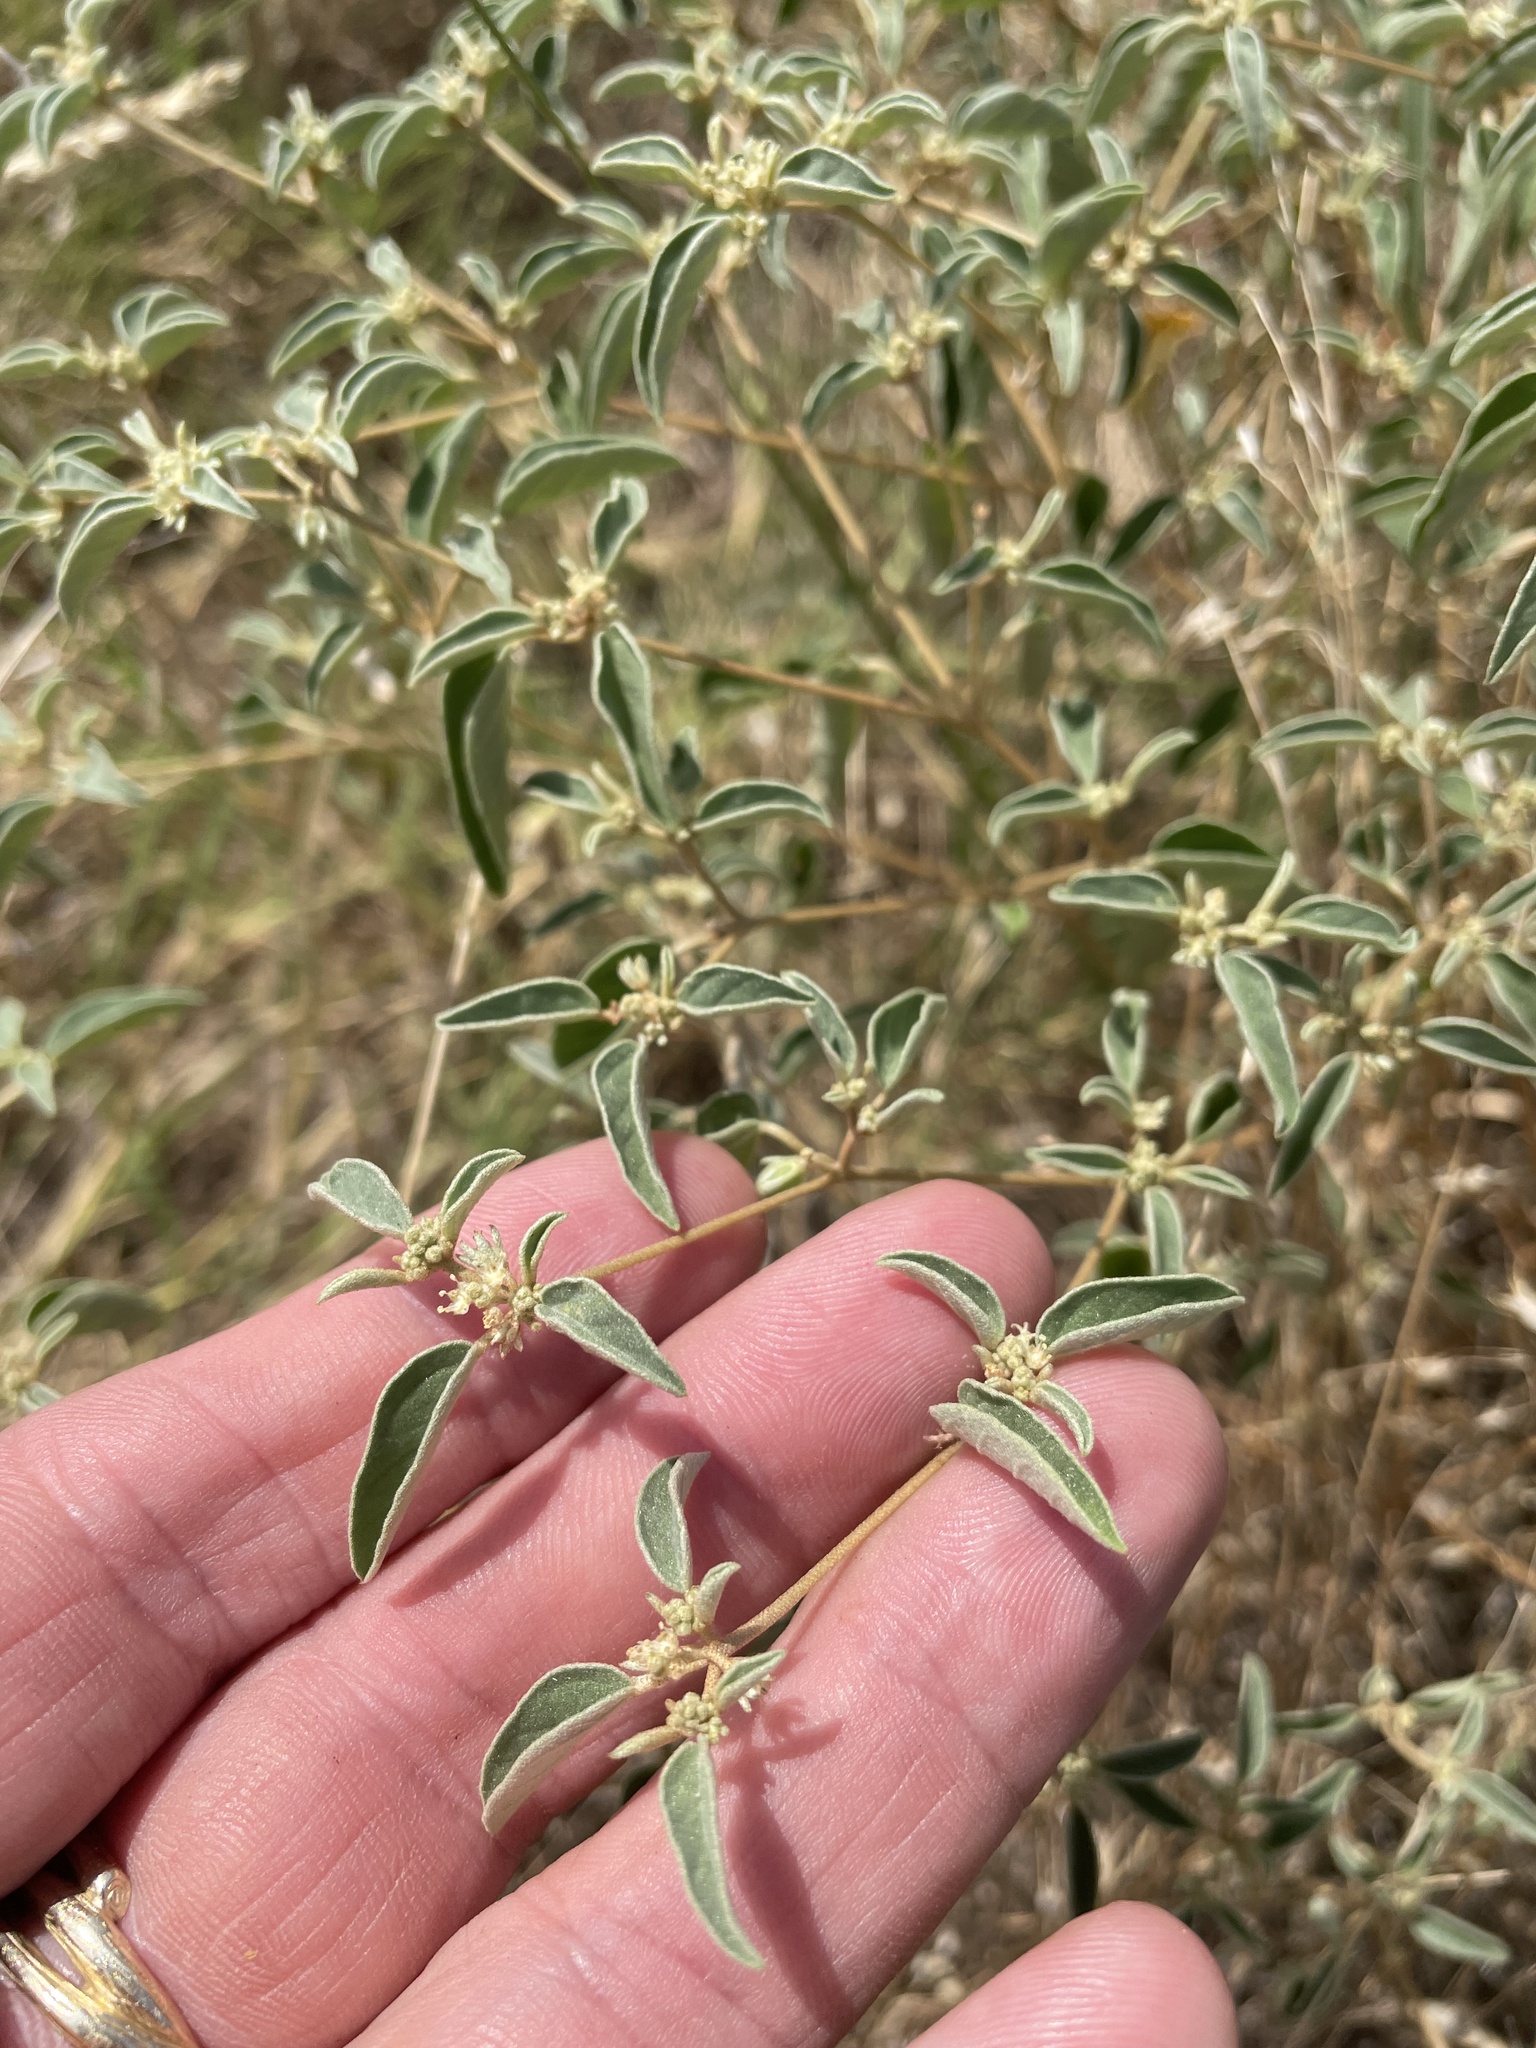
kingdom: Plantae
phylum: Tracheophyta
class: Magnoliopsida
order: Malpighiales
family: Euphorbiaceae
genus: Croton
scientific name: Croton monanthogynus
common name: One-seed croton
